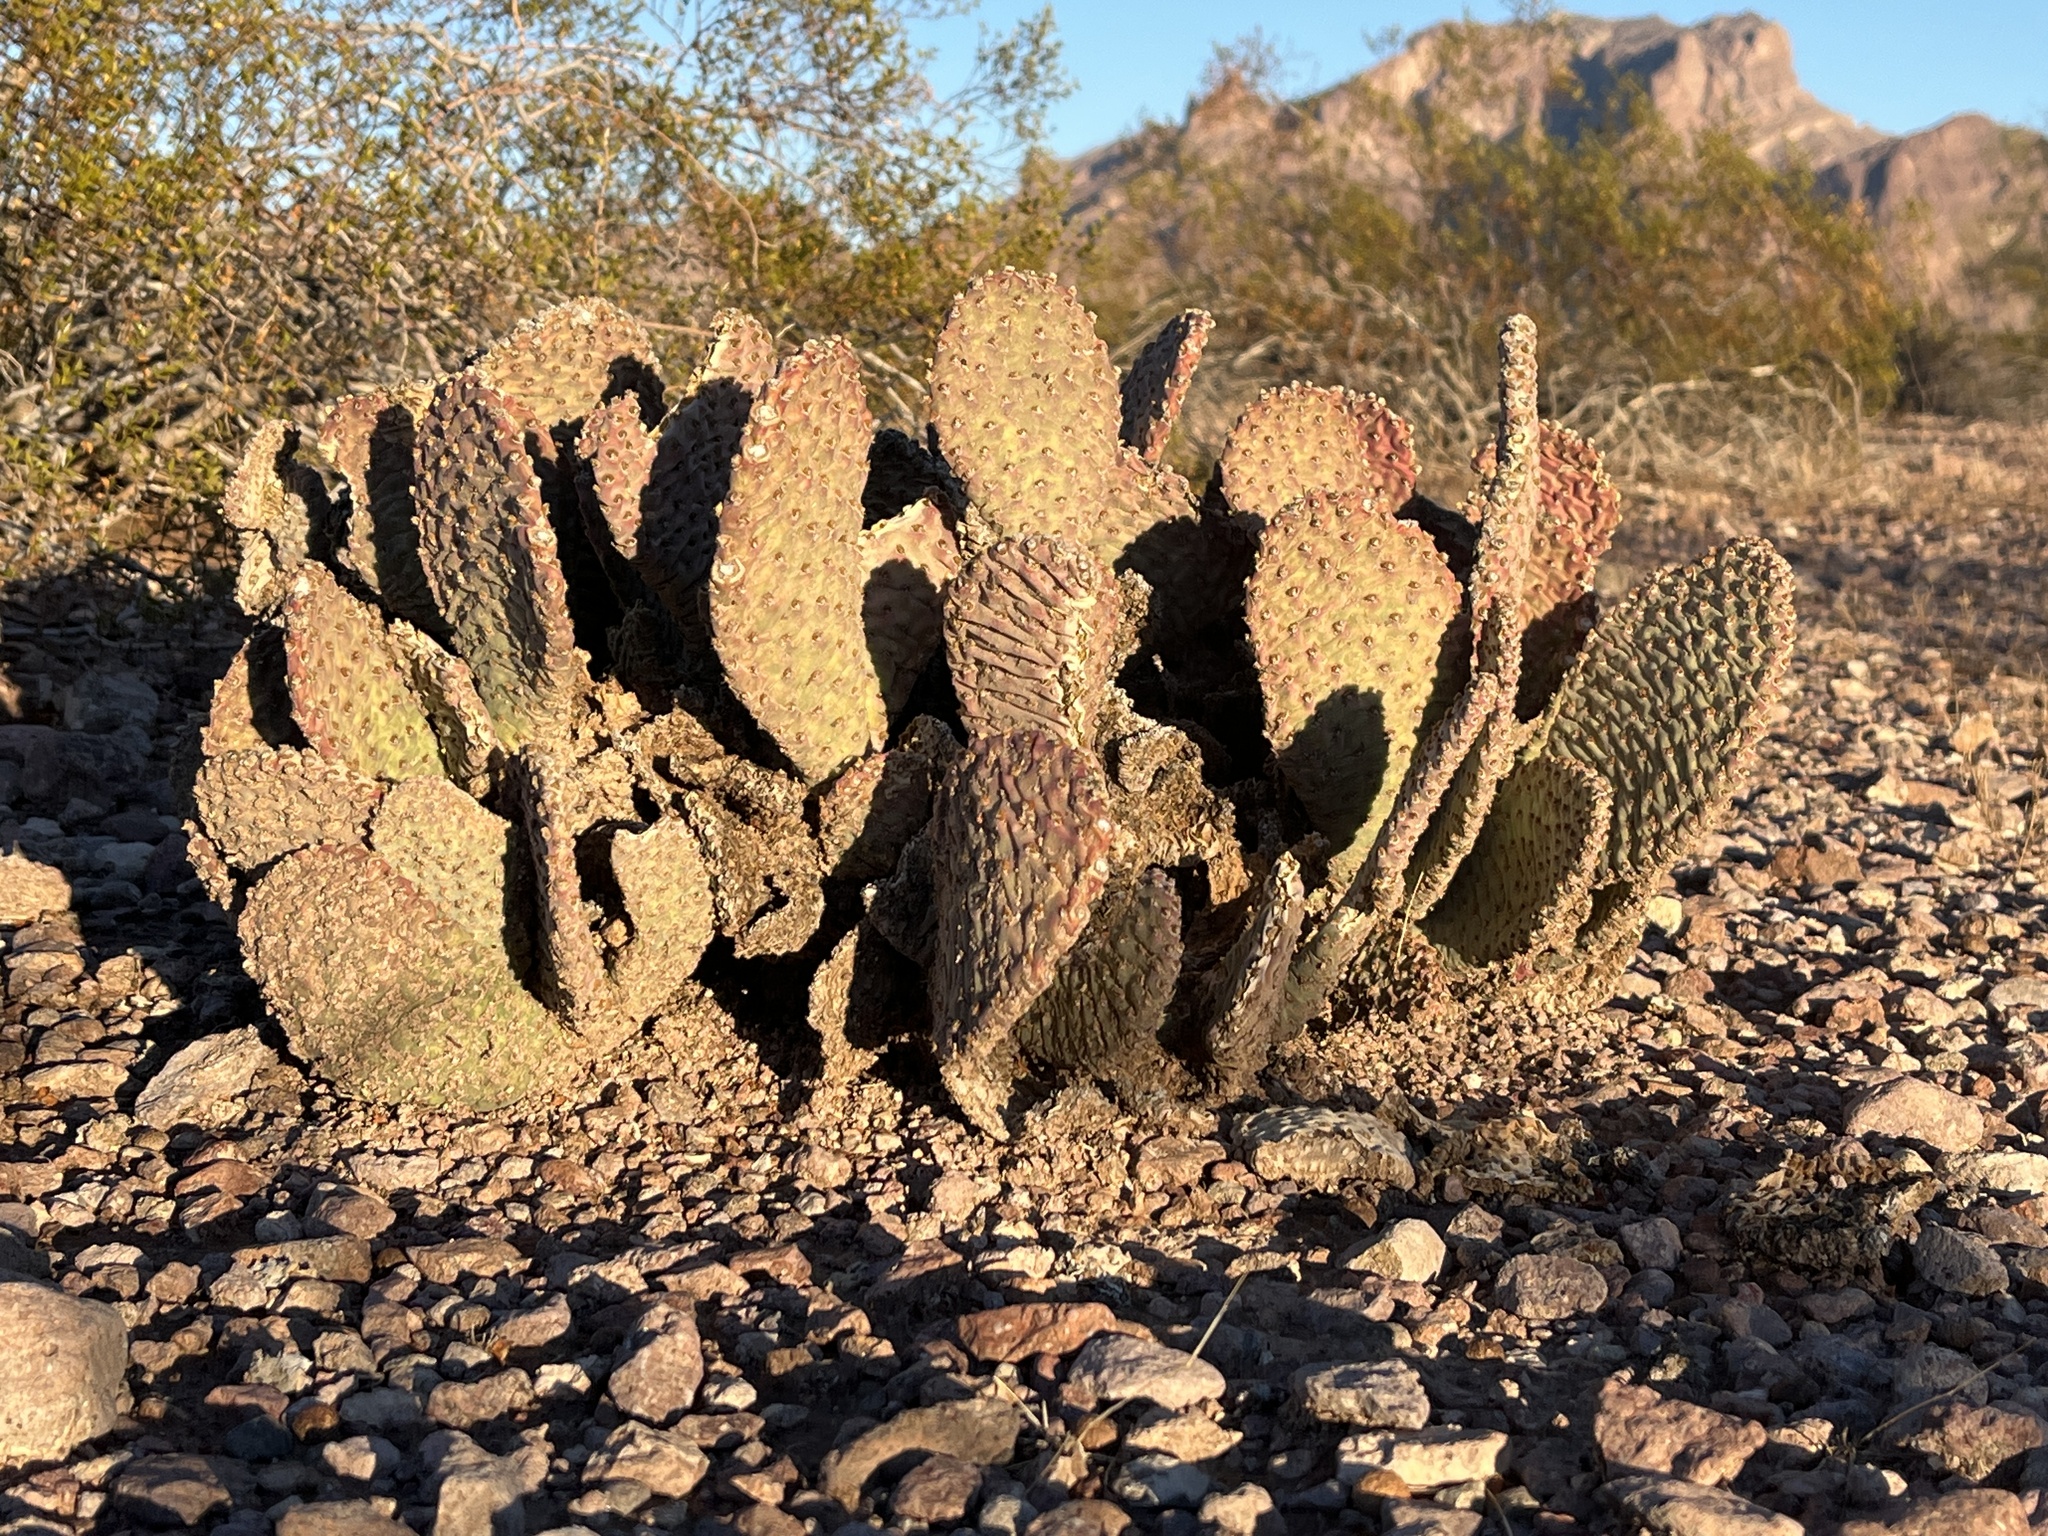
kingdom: Plantae
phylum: Tracheophyta
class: Magnoliopsida
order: Caryophyllales
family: Cactaceae
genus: Opuntia
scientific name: Opuntia basilaris
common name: Beavertail prickly-pear
